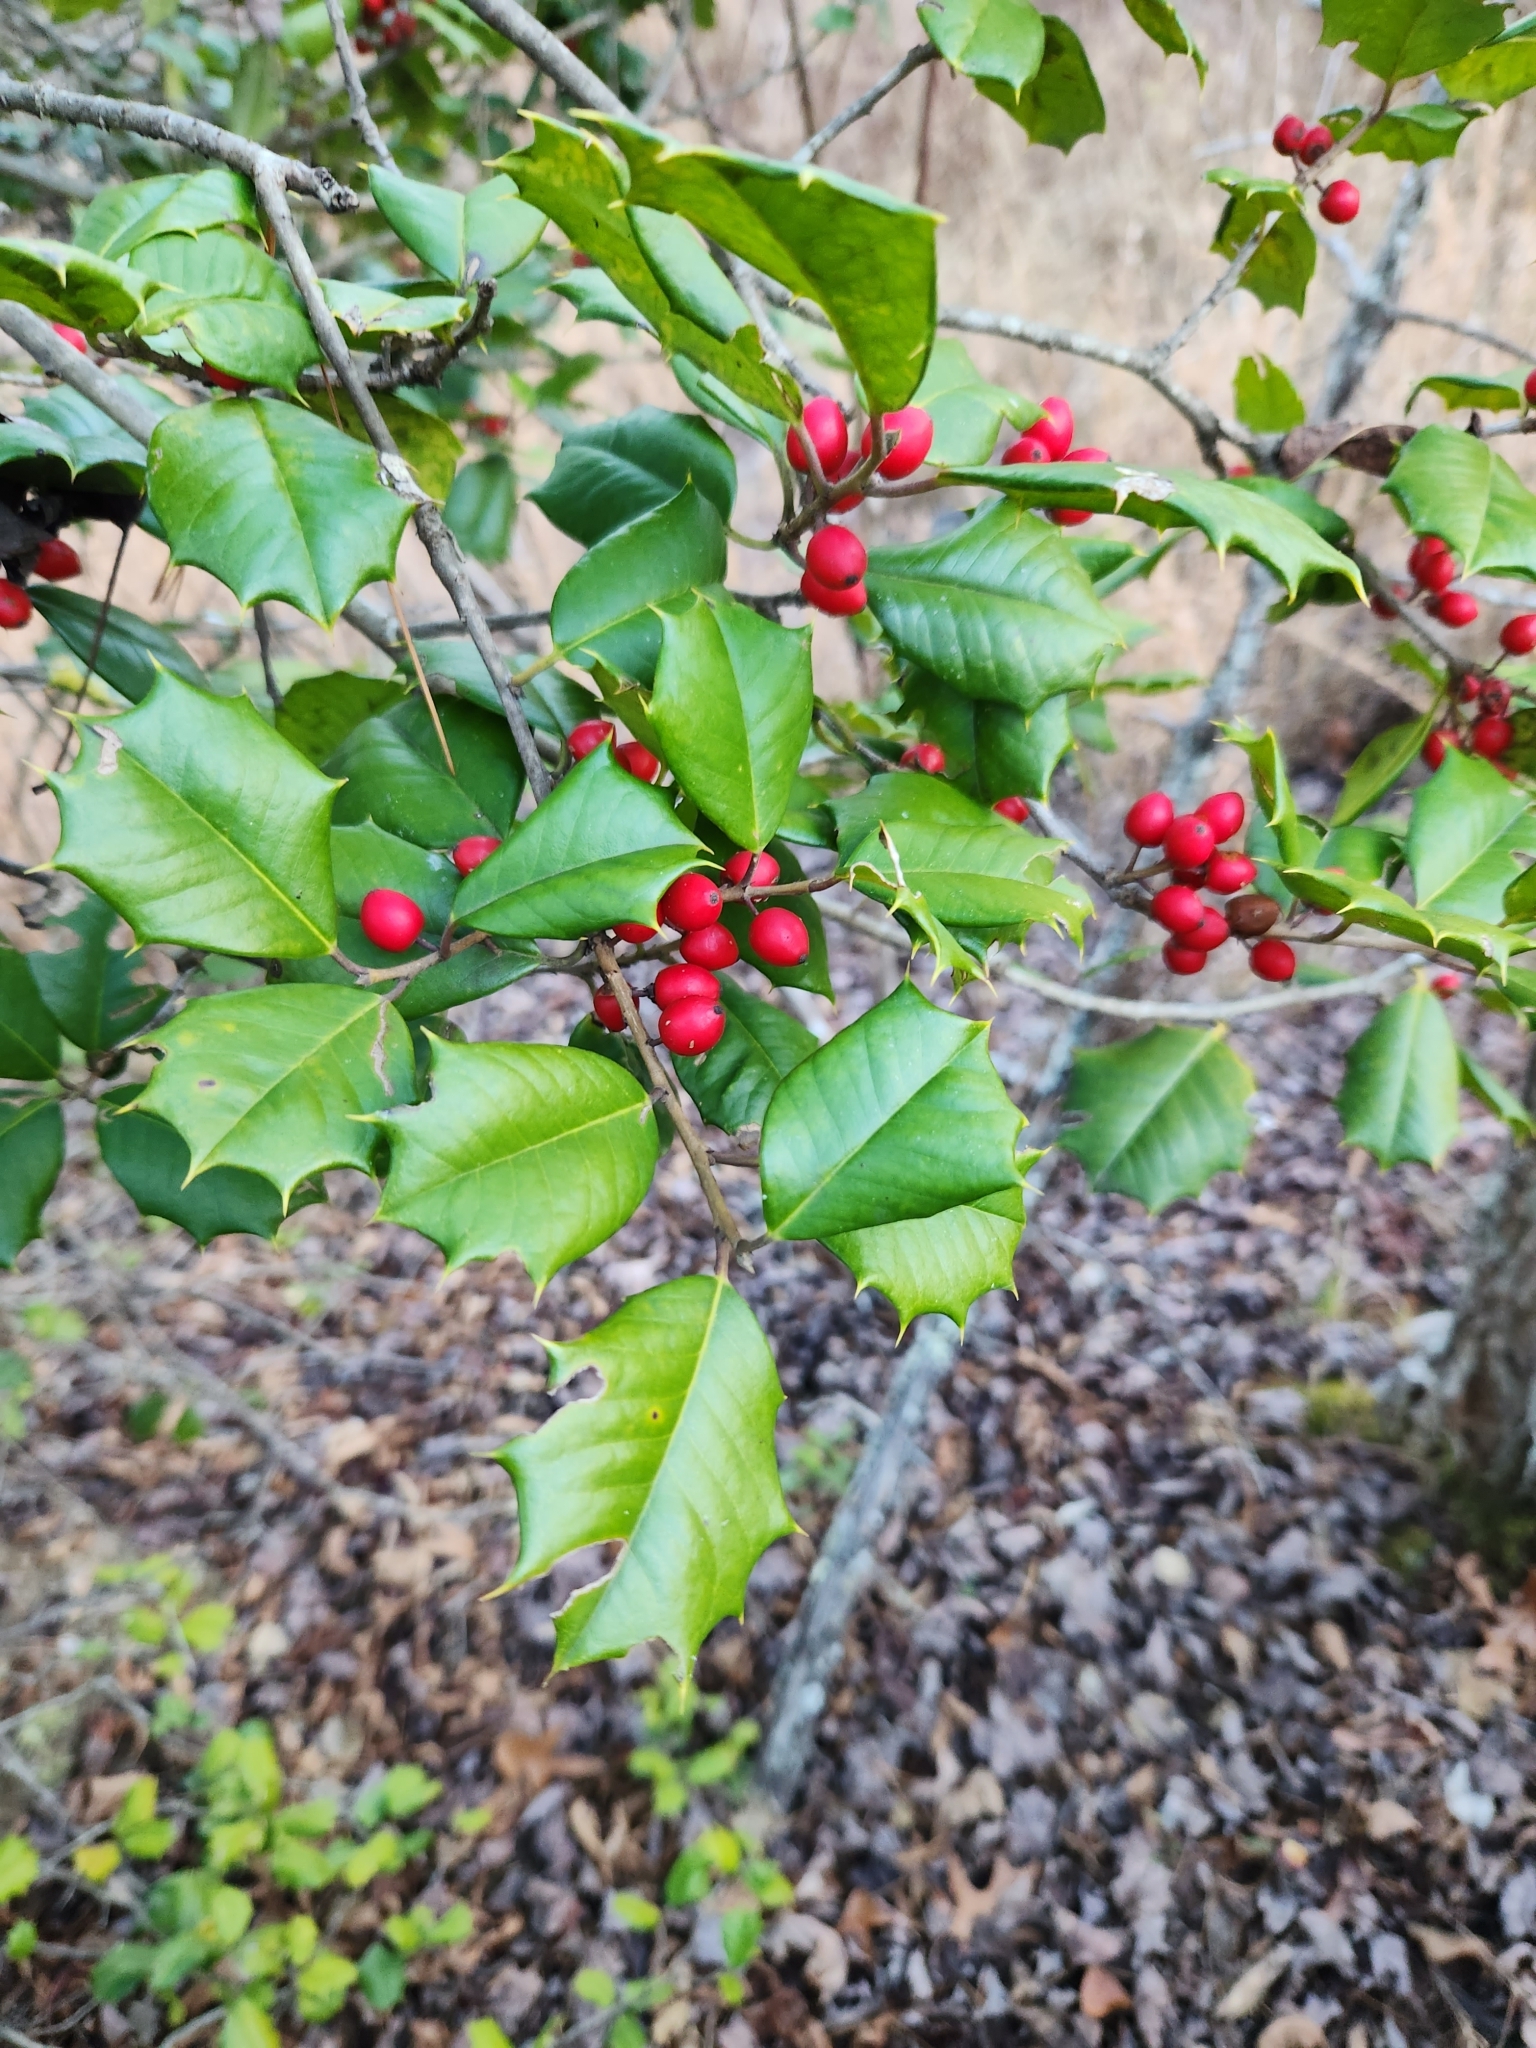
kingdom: Plantae
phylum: Tracheophyta
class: Magnoliopsida
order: Aquifoliales
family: Aquifoliaceae
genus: Ilex
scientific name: Ilex opaca
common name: American holly
